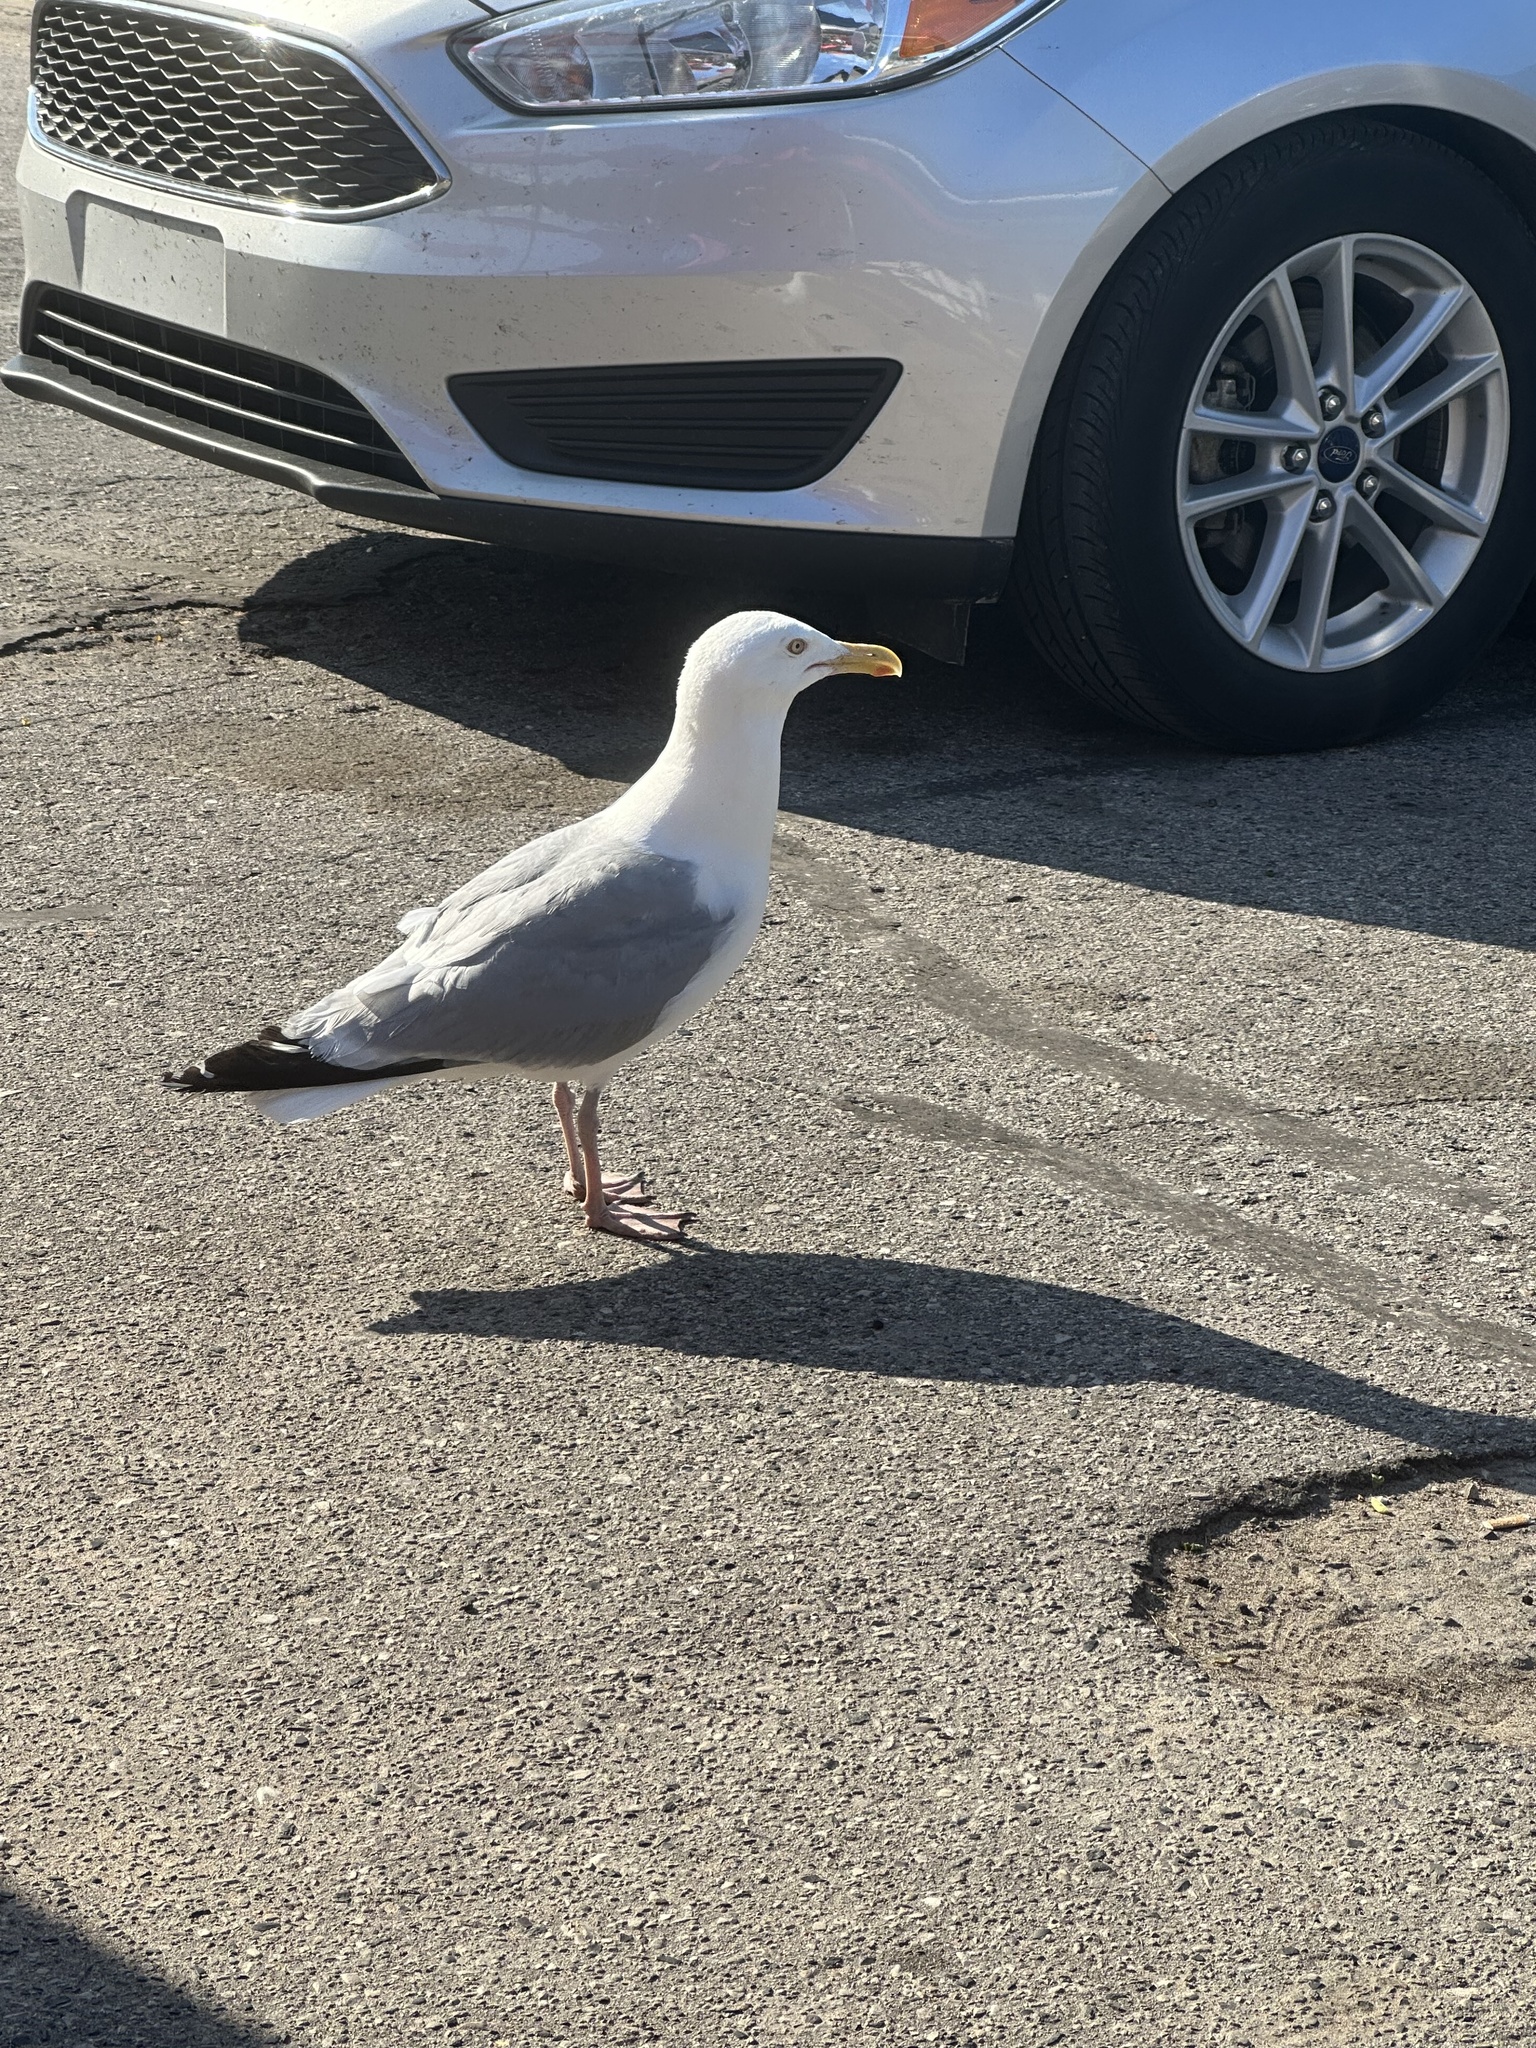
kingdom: Animalia
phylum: Chordata
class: Aves
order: Charadriiformes
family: Laridae
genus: Larus
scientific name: Larus argentatus
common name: Herring gull
